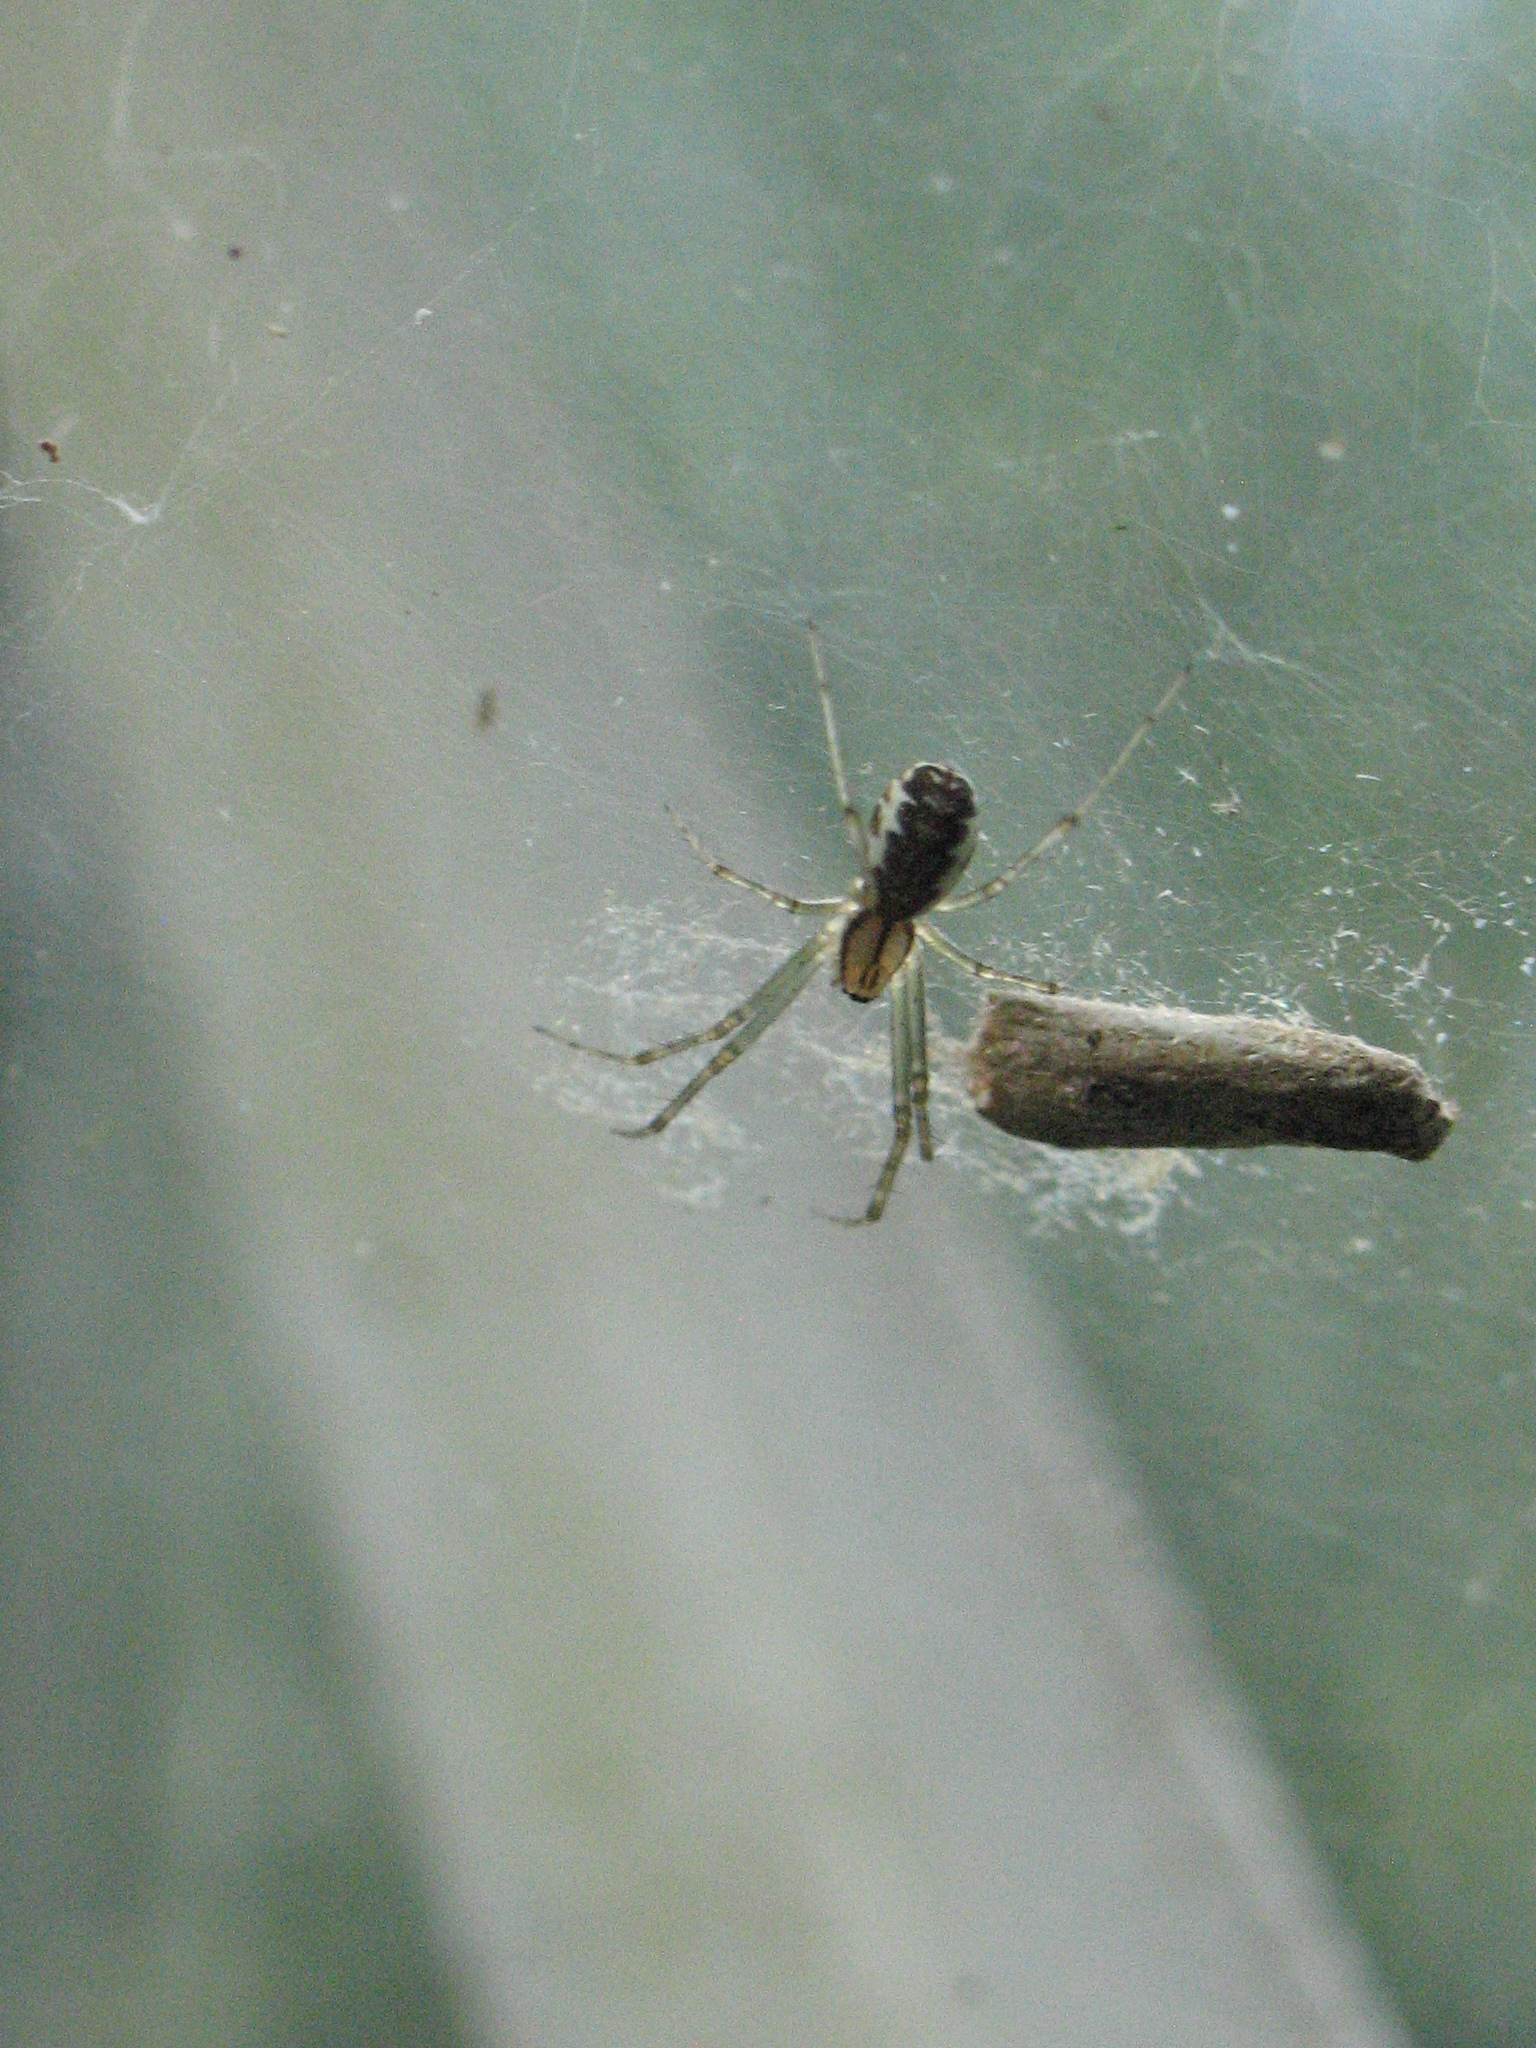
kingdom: Animalia
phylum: Arthropoda
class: Arachnida
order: Araneae
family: Linyphiidae
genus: Linyphia
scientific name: Linyphia triangularis
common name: Money spider
